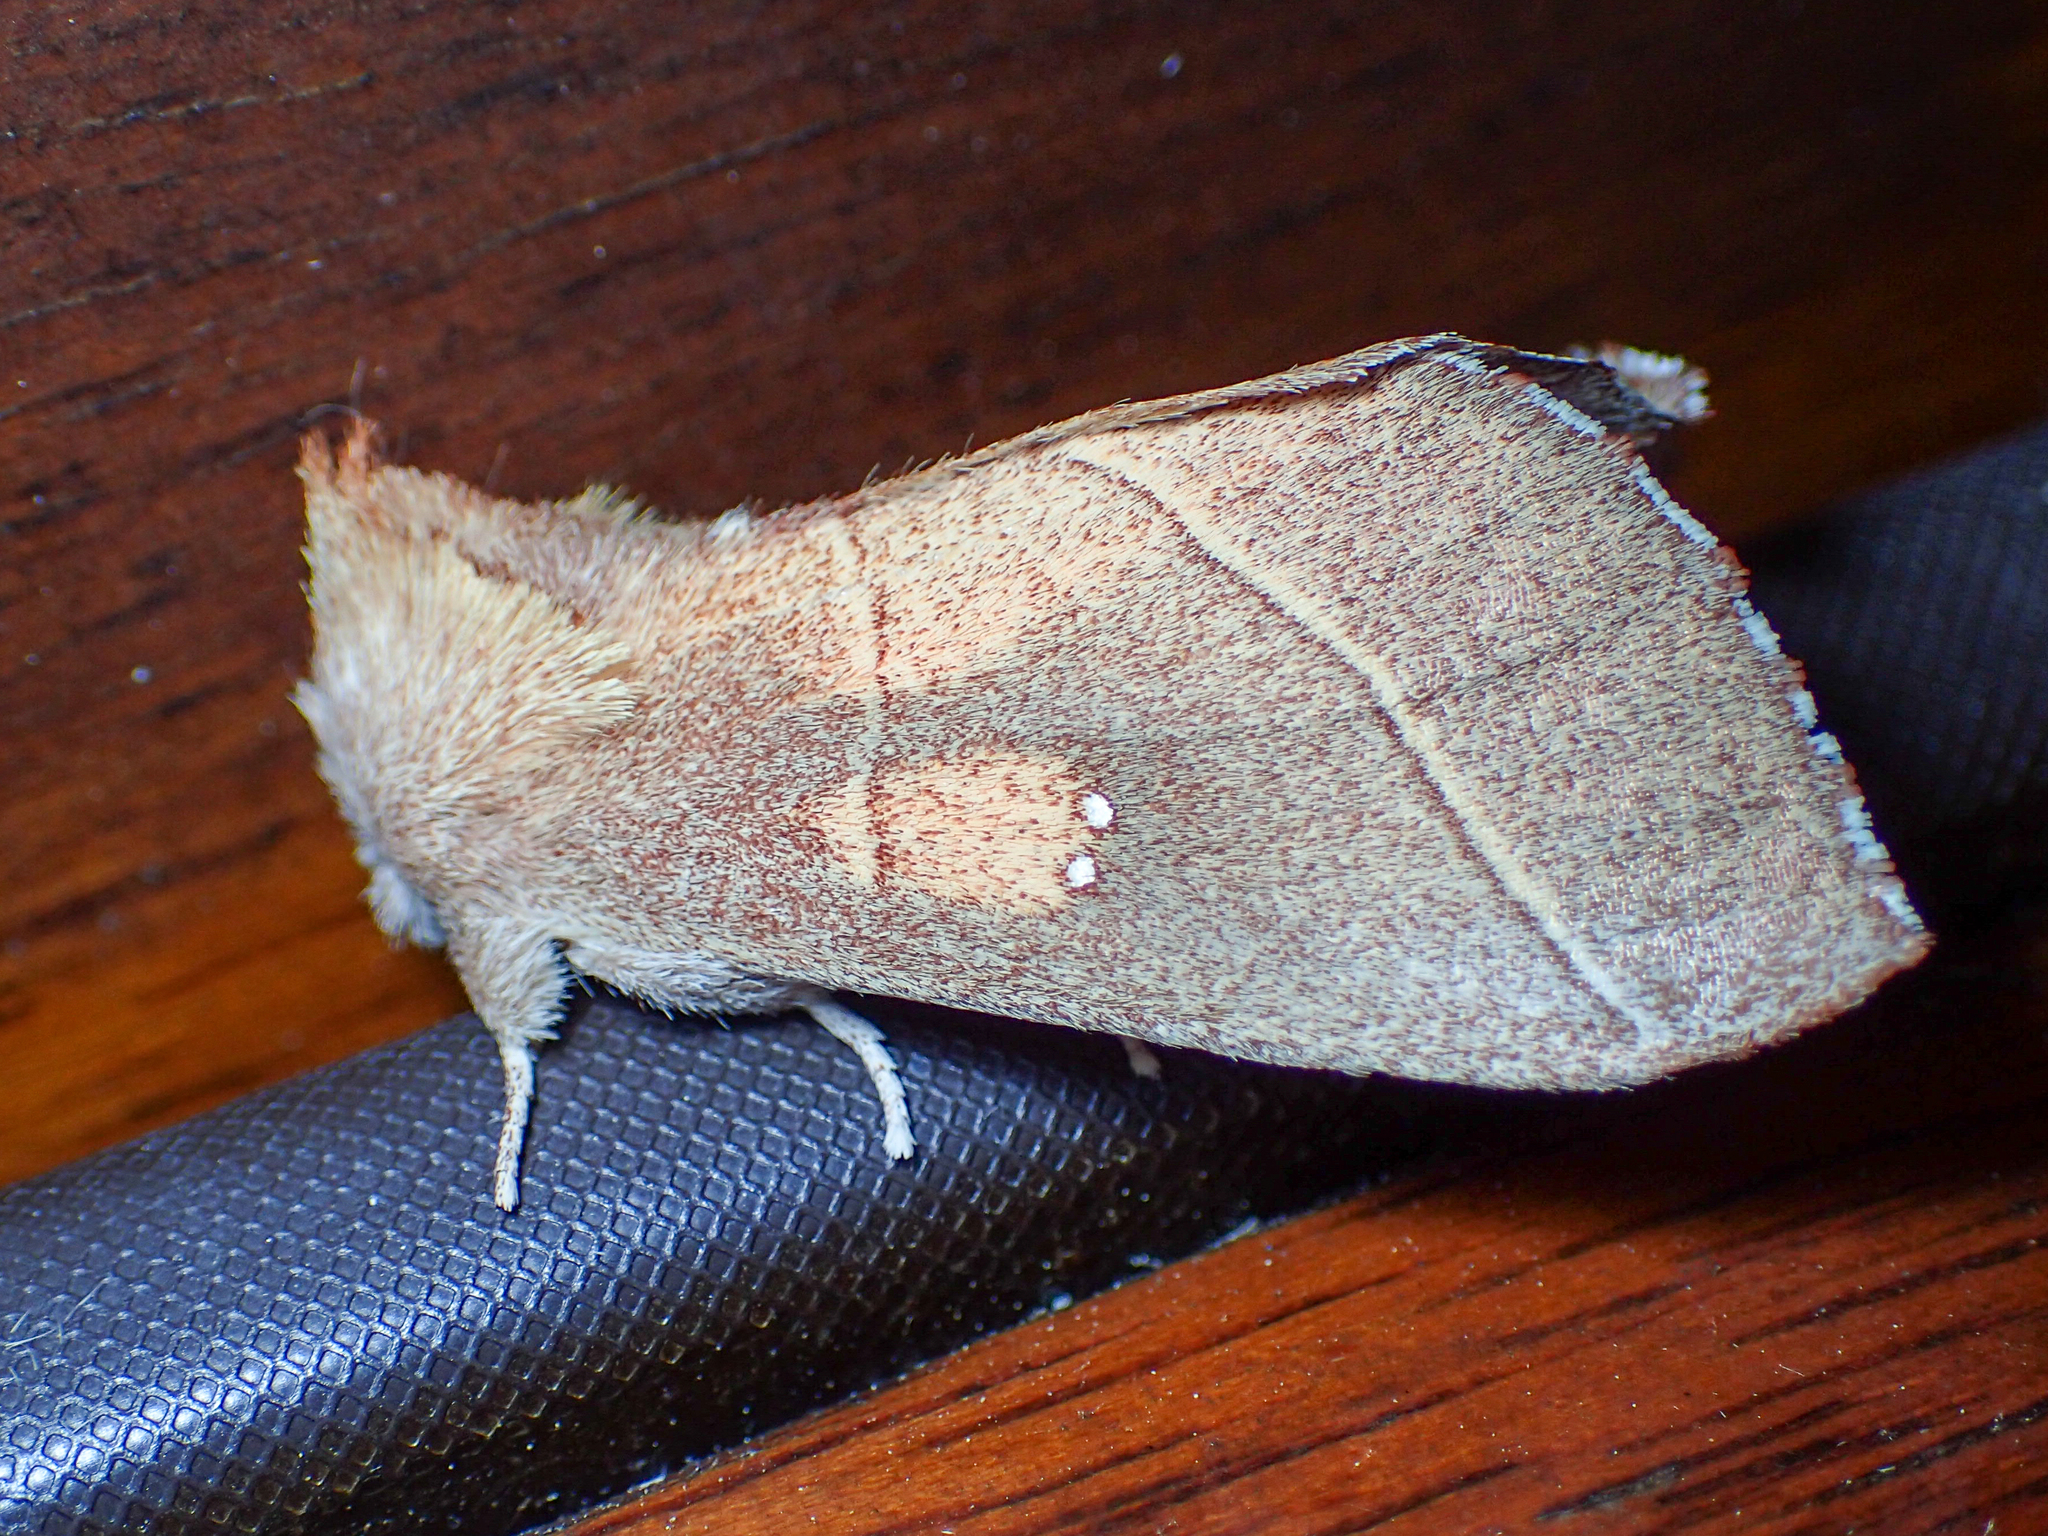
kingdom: Animalia
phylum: Arthropoda
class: Insecta
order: Lepidoptera
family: Notodontidae
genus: Nadata
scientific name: Nadata gibbosa
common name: White-dotted prominent
